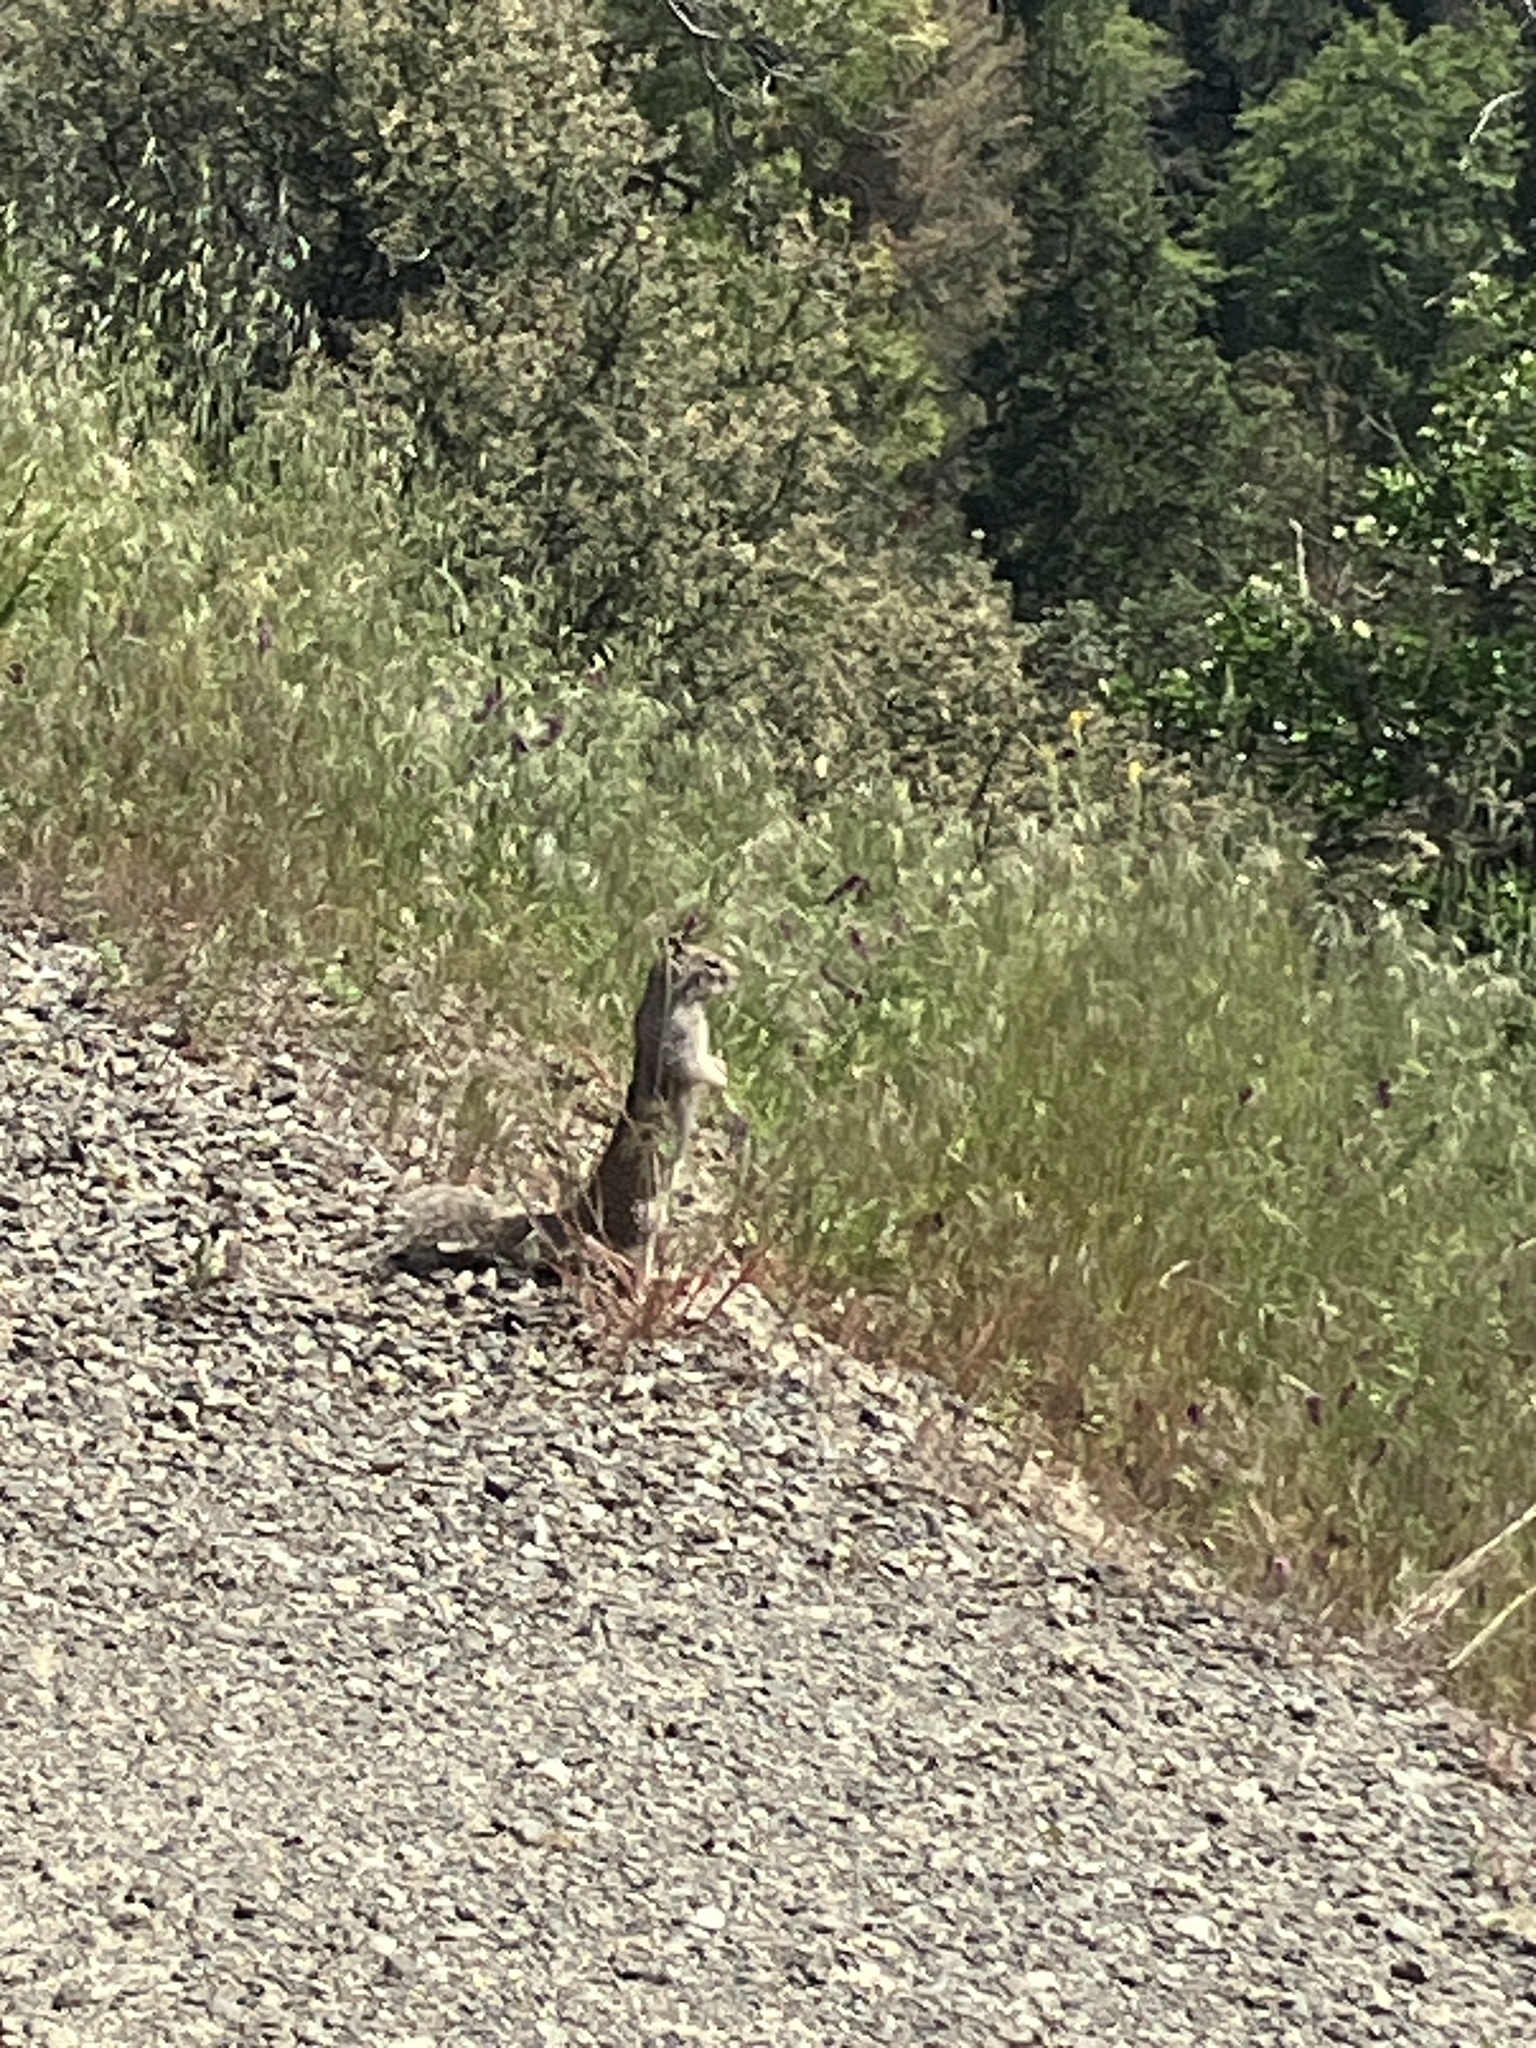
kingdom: Animalia
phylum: Chordata
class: Mammalia
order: Rodentia
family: Sciuridae
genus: Otospermophilus
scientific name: Otospermophilus beecheyi
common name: California ground squirrel
